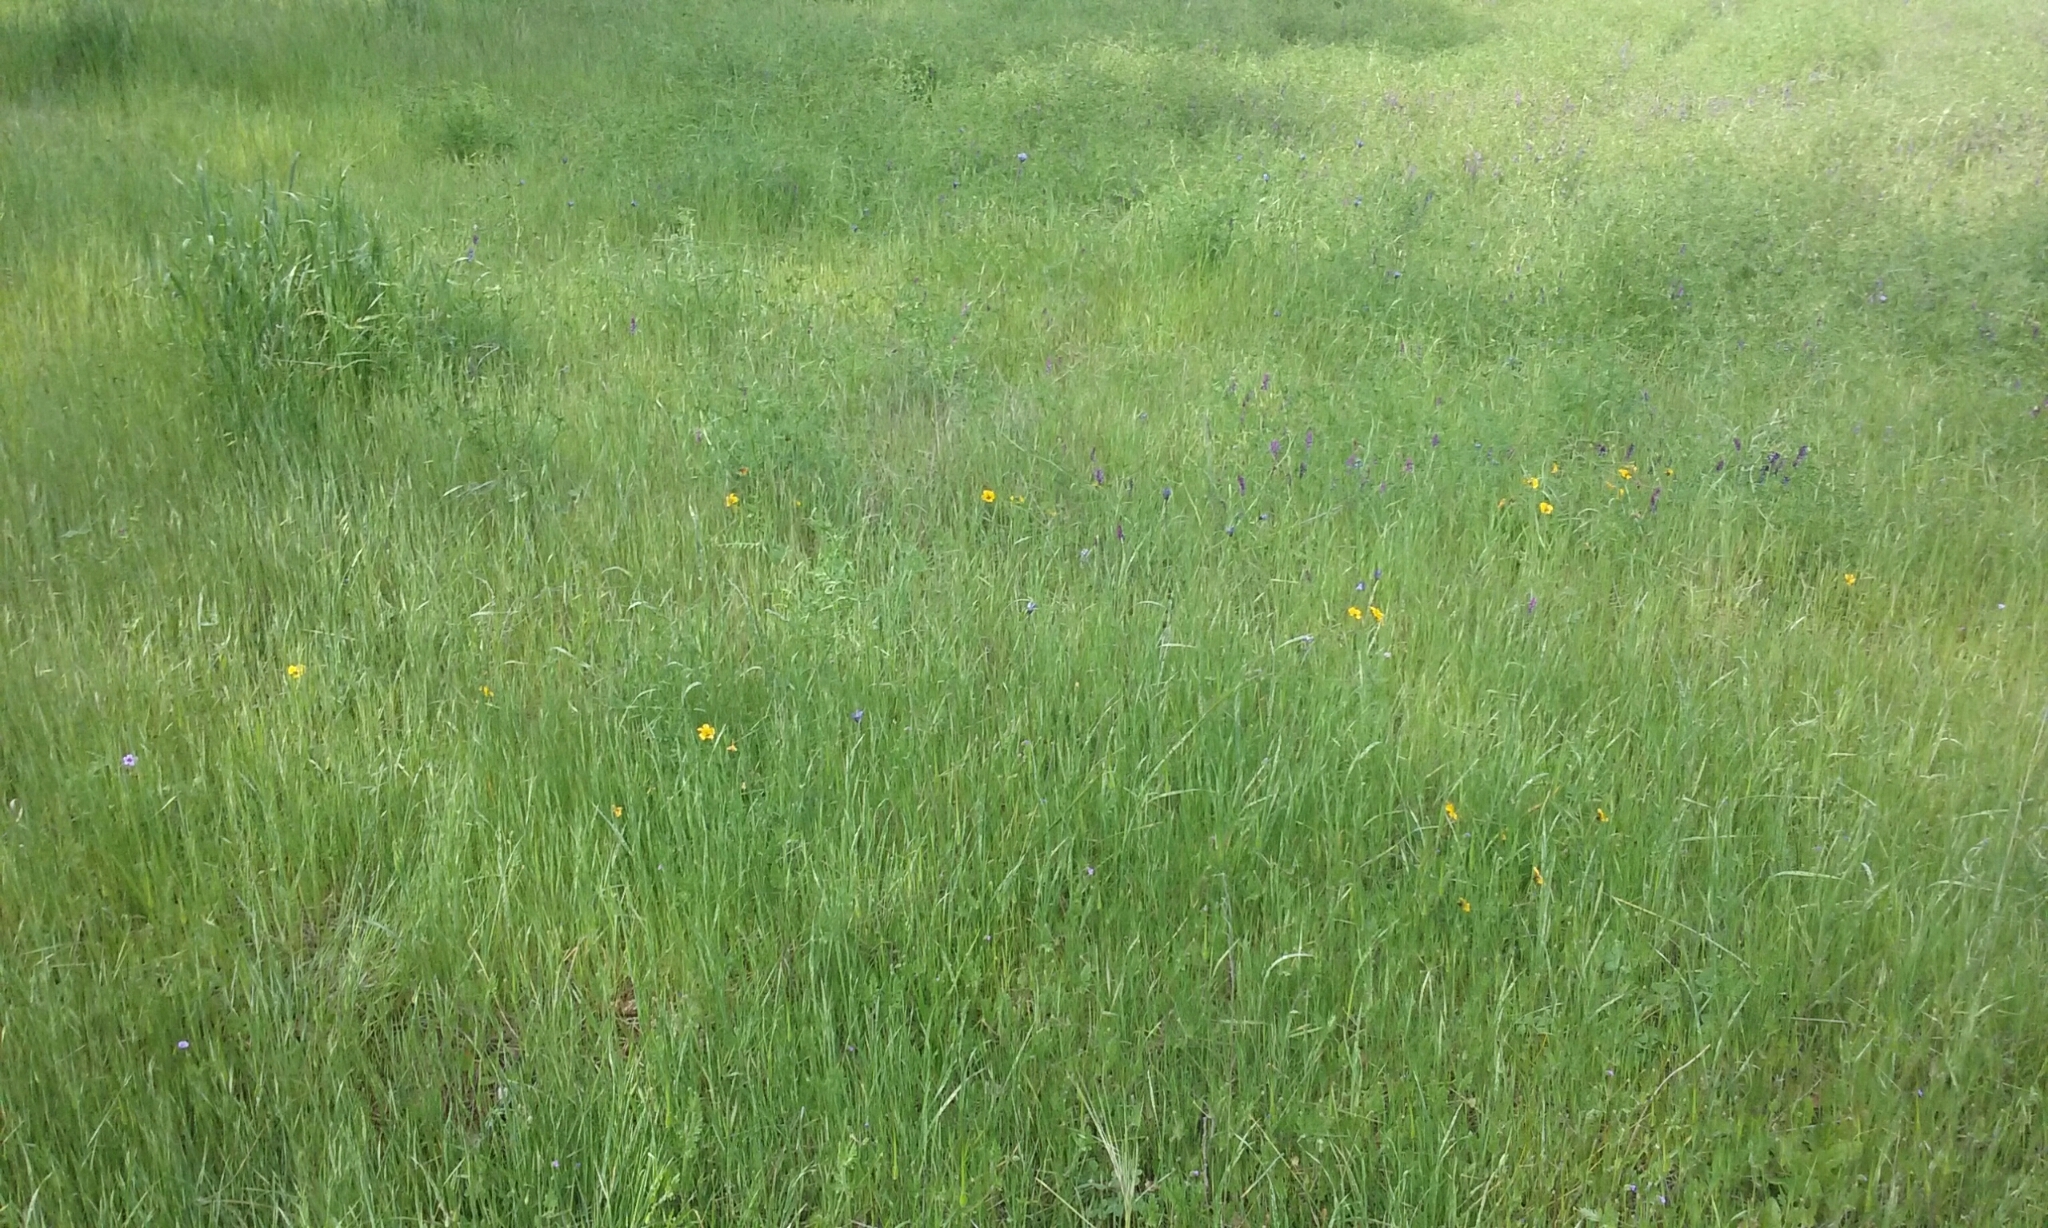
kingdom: Plantae
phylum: Tracheophyta
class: Magnoliopsida
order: Malpighiales
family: Violaceae
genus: Viola
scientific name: Viola pedunculata
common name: California golden violet
